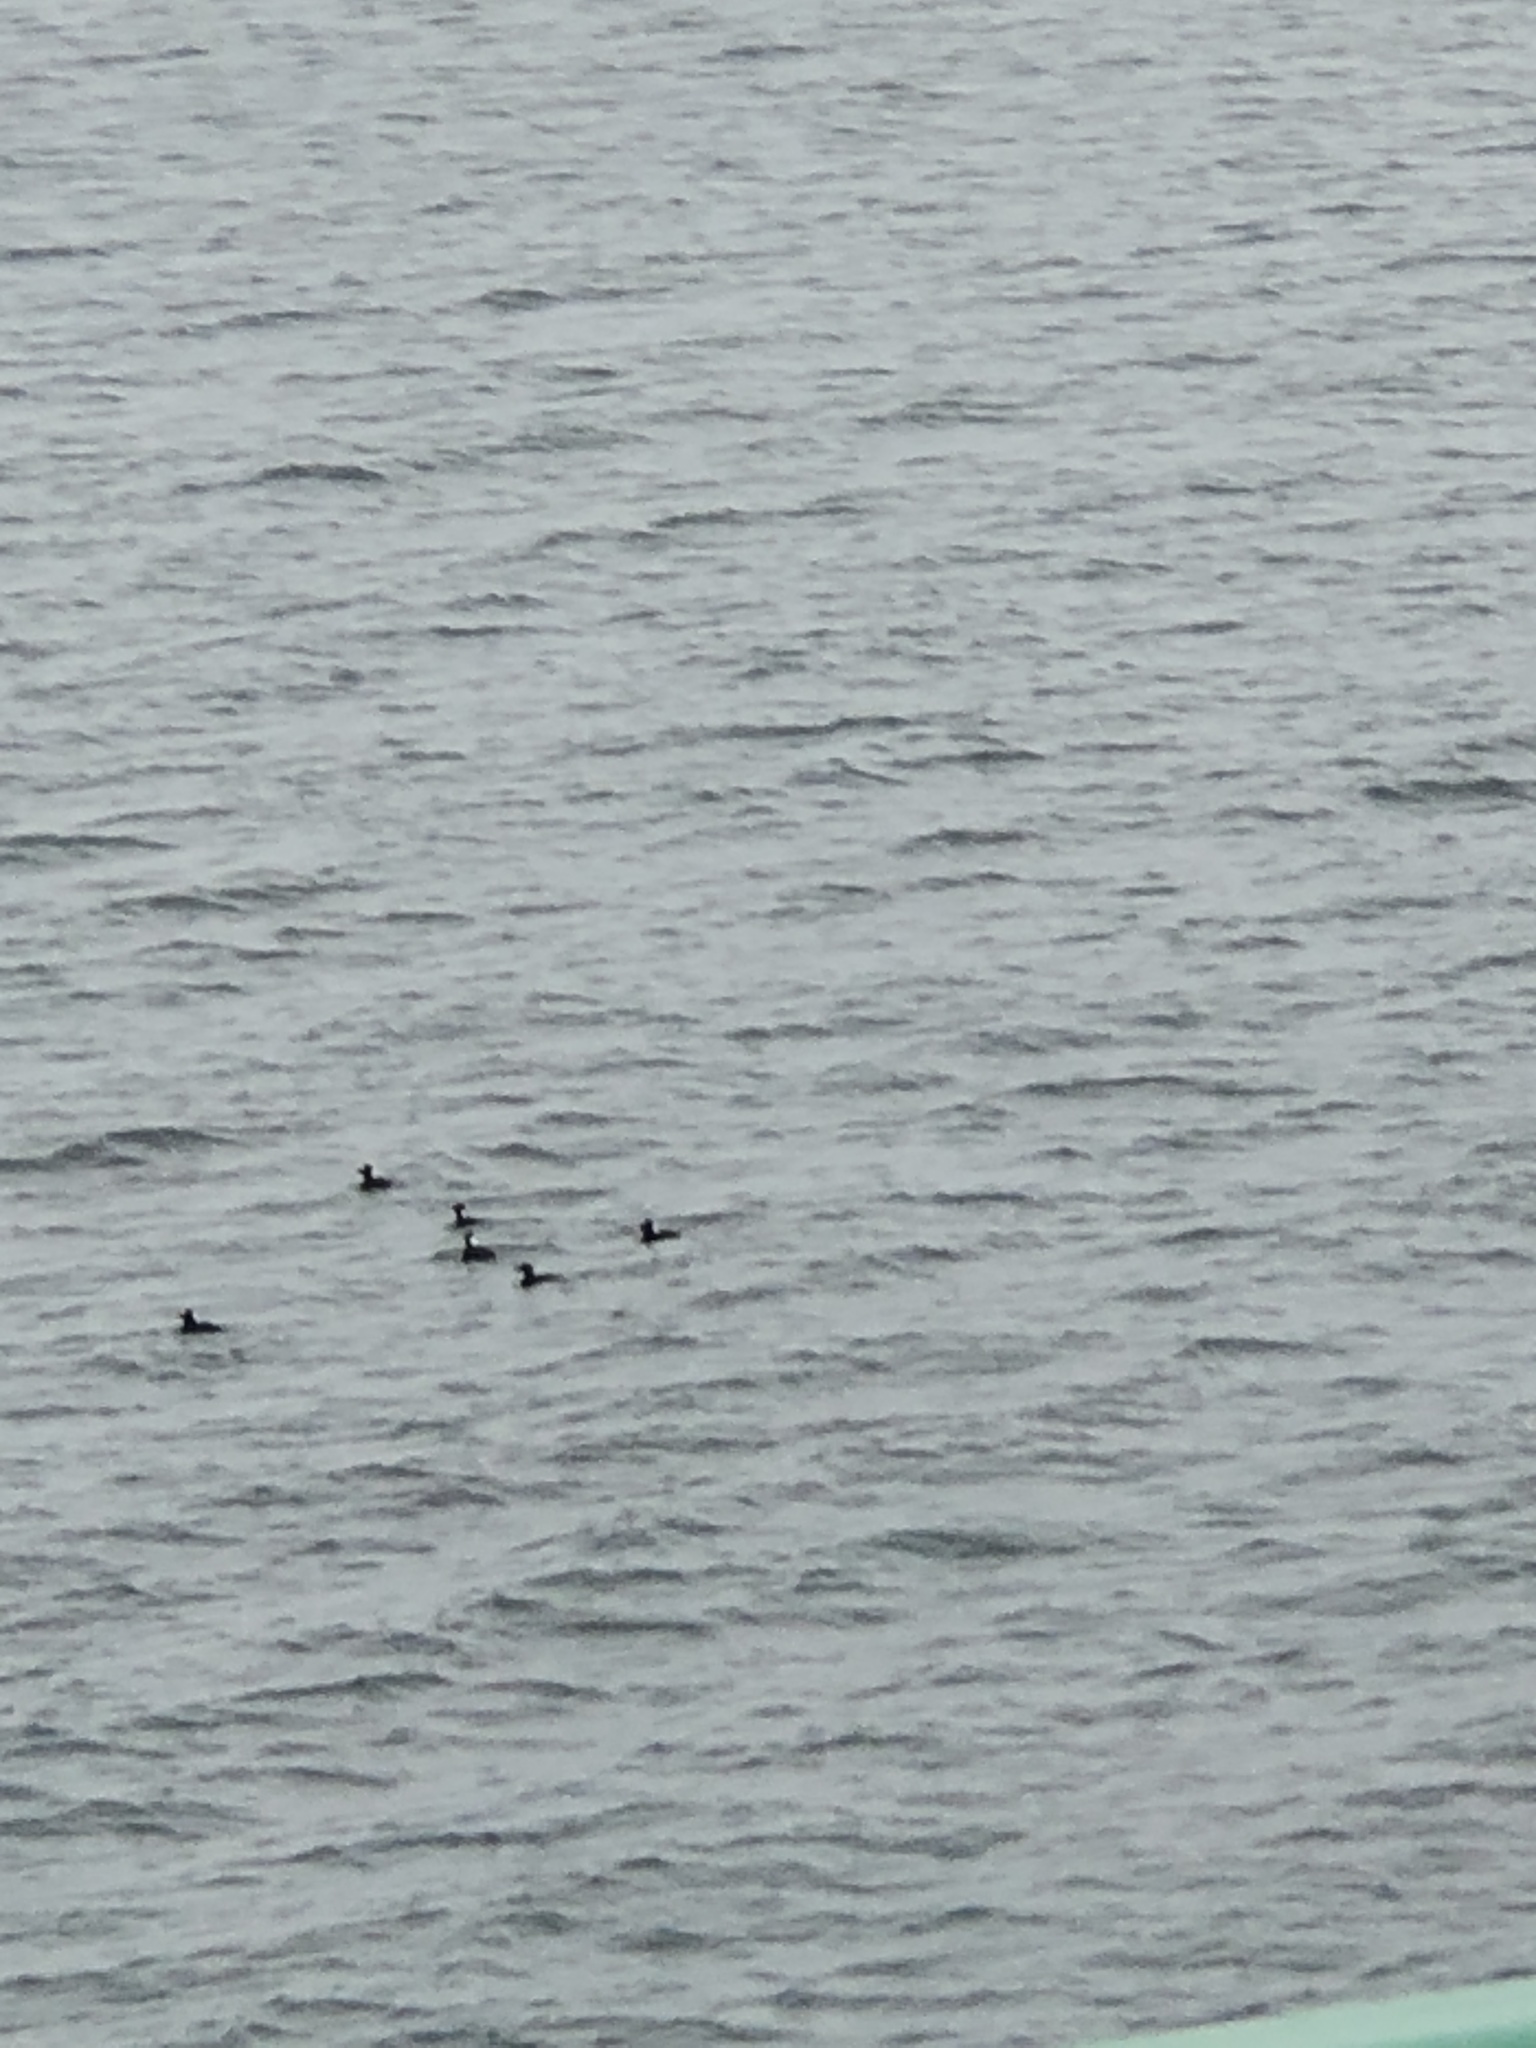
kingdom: Animalia
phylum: Chordata
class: Aves
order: Anseriformes
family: Anatidae
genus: Melanitta
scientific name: Melanitta perspicillata
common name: Surf scoter
